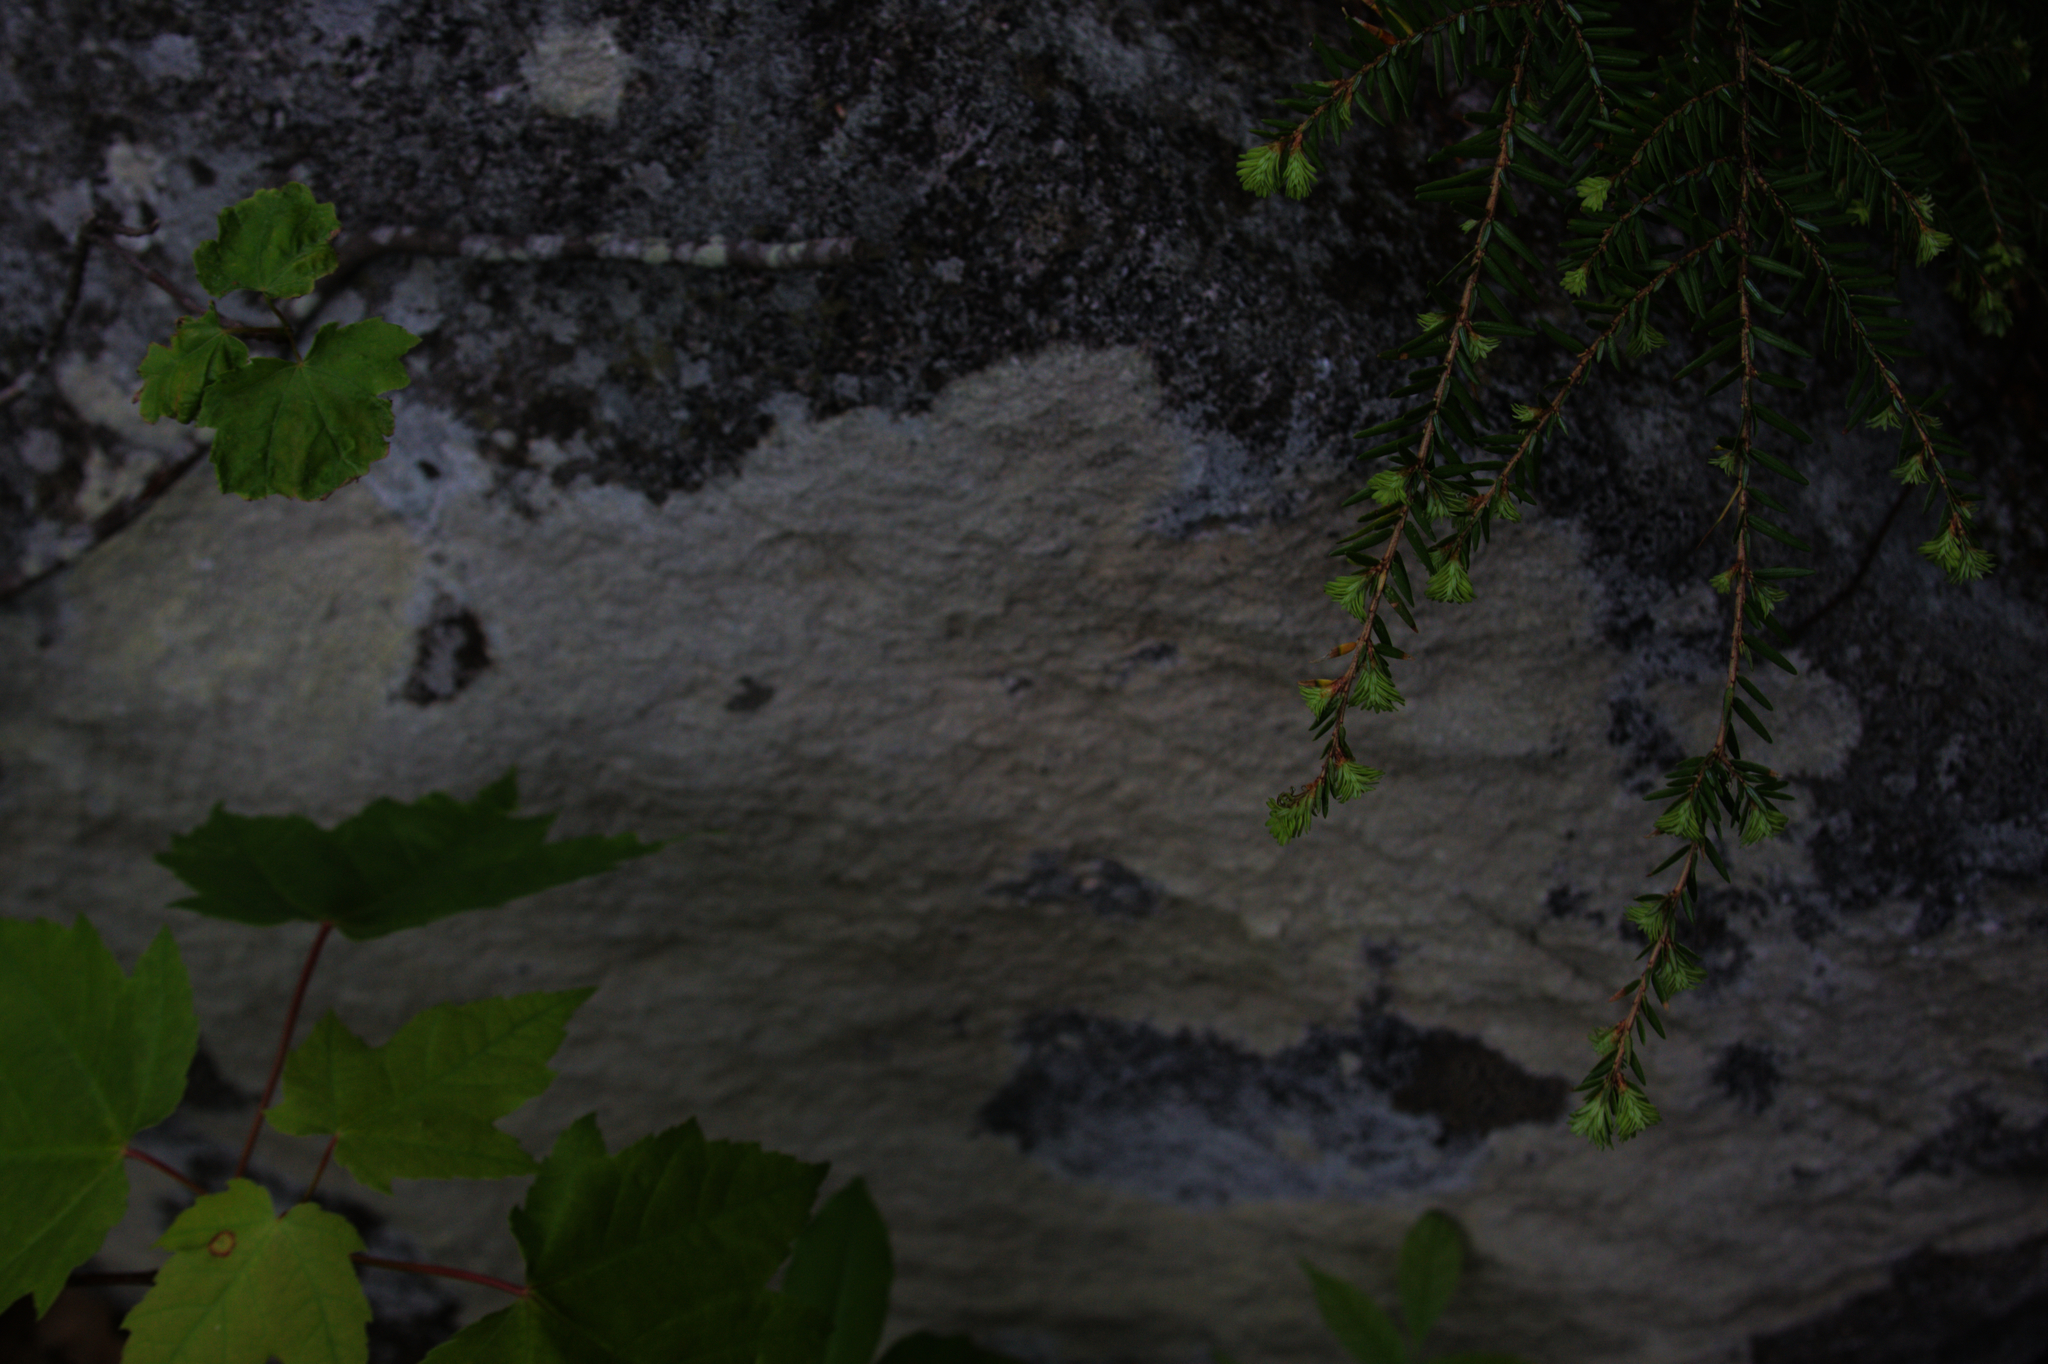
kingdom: Plantae
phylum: Tracheophyta
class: Pinopsida
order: Pinales
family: Pinaceae
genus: Tsuga
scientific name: Tsuga canadensis
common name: Eastern hemlock
